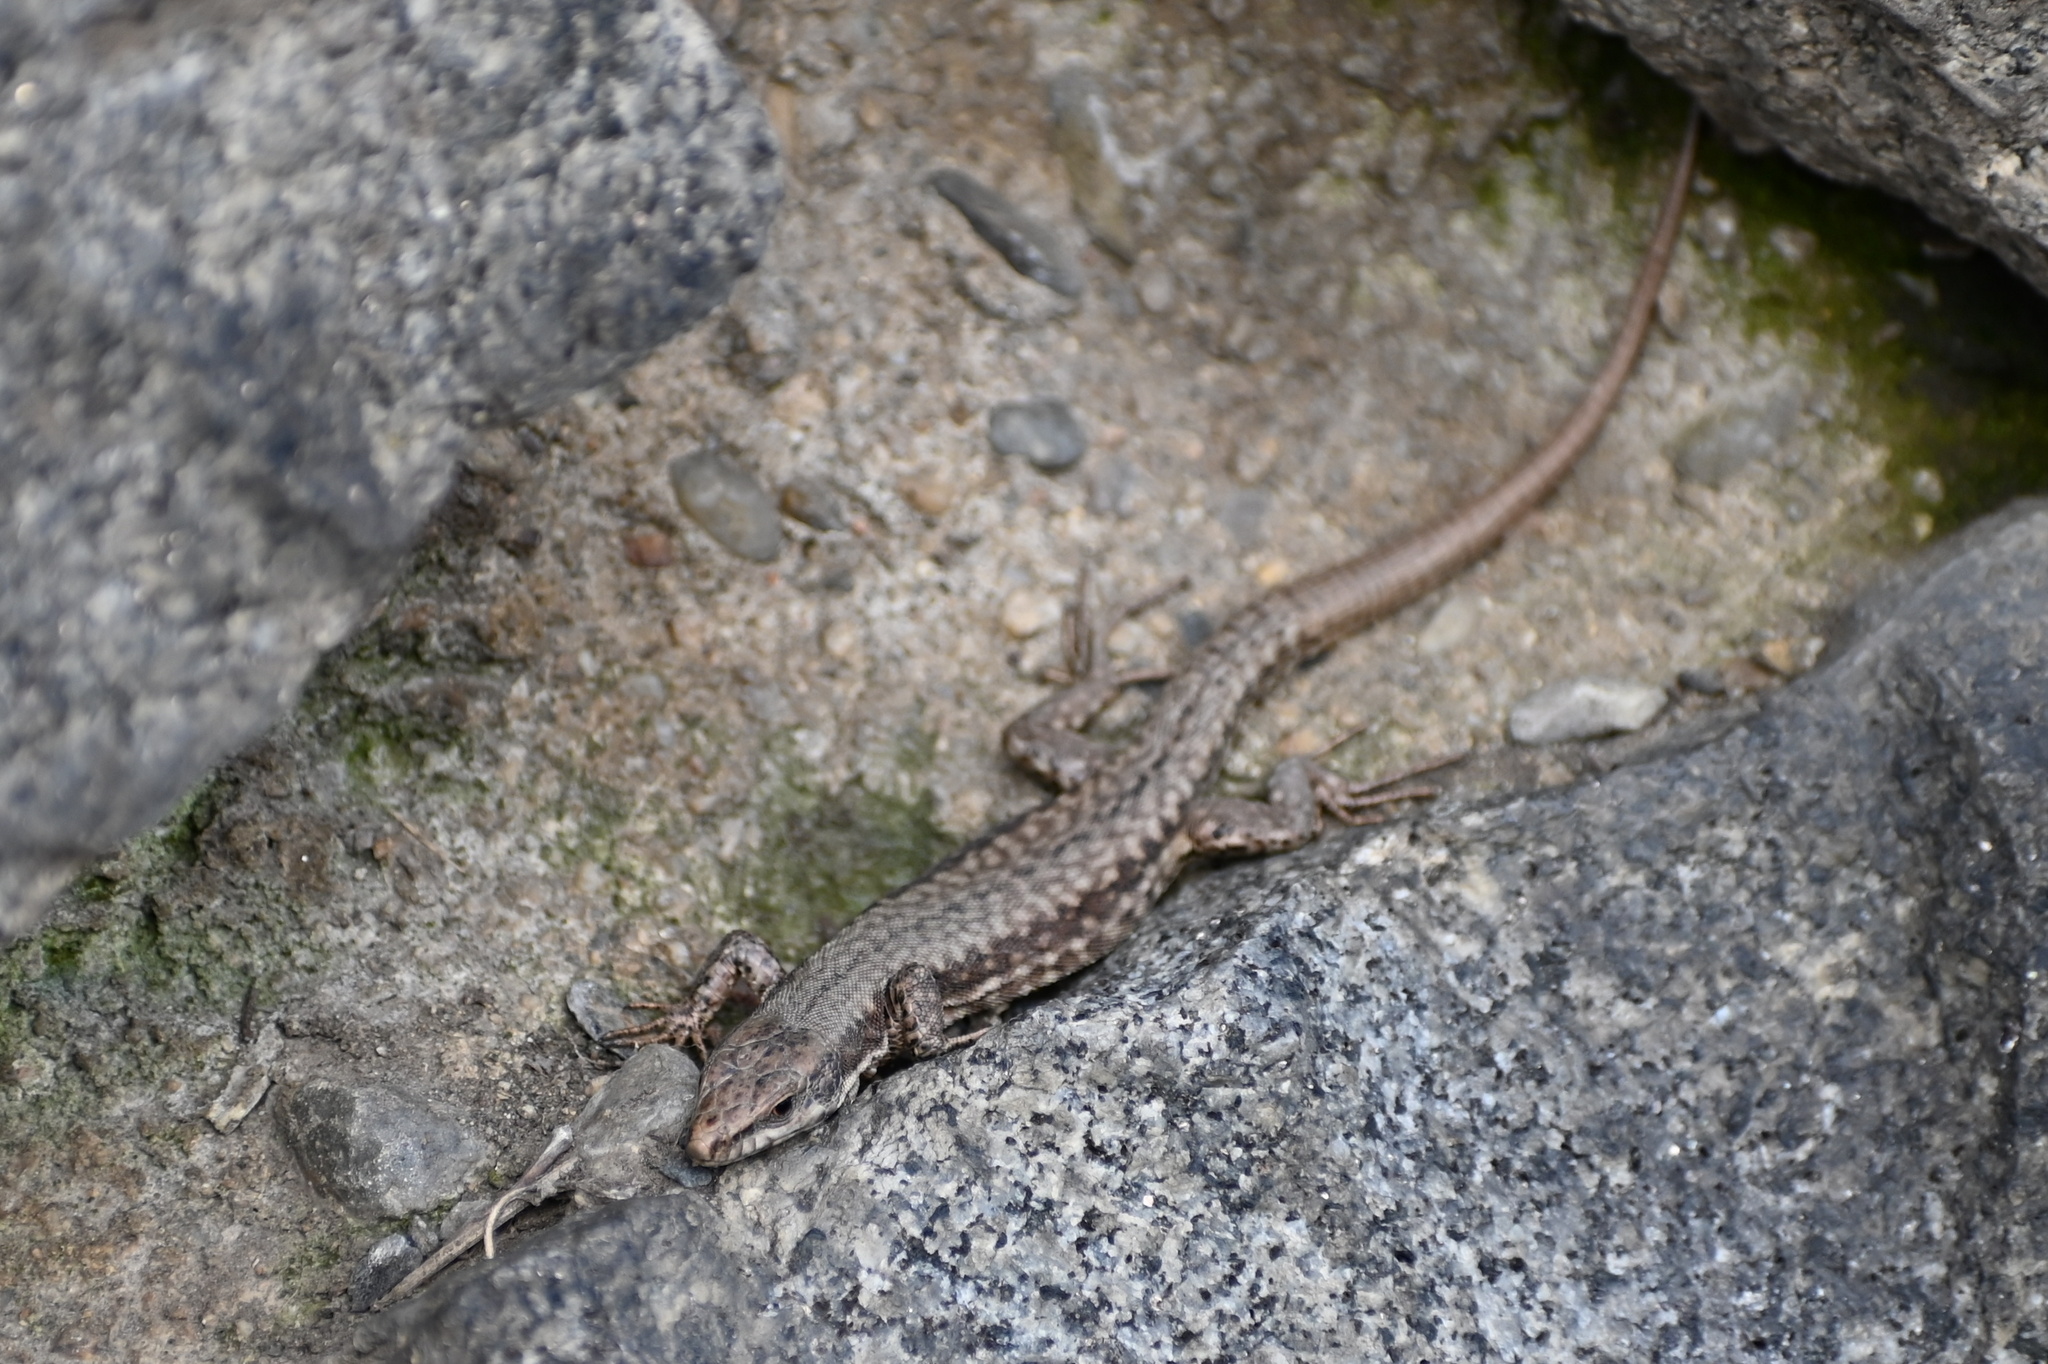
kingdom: Animalia
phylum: Chordata
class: Squamata
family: Lacertidae
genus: Podarcis
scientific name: Podarcis muralis
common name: Common wall lizard
